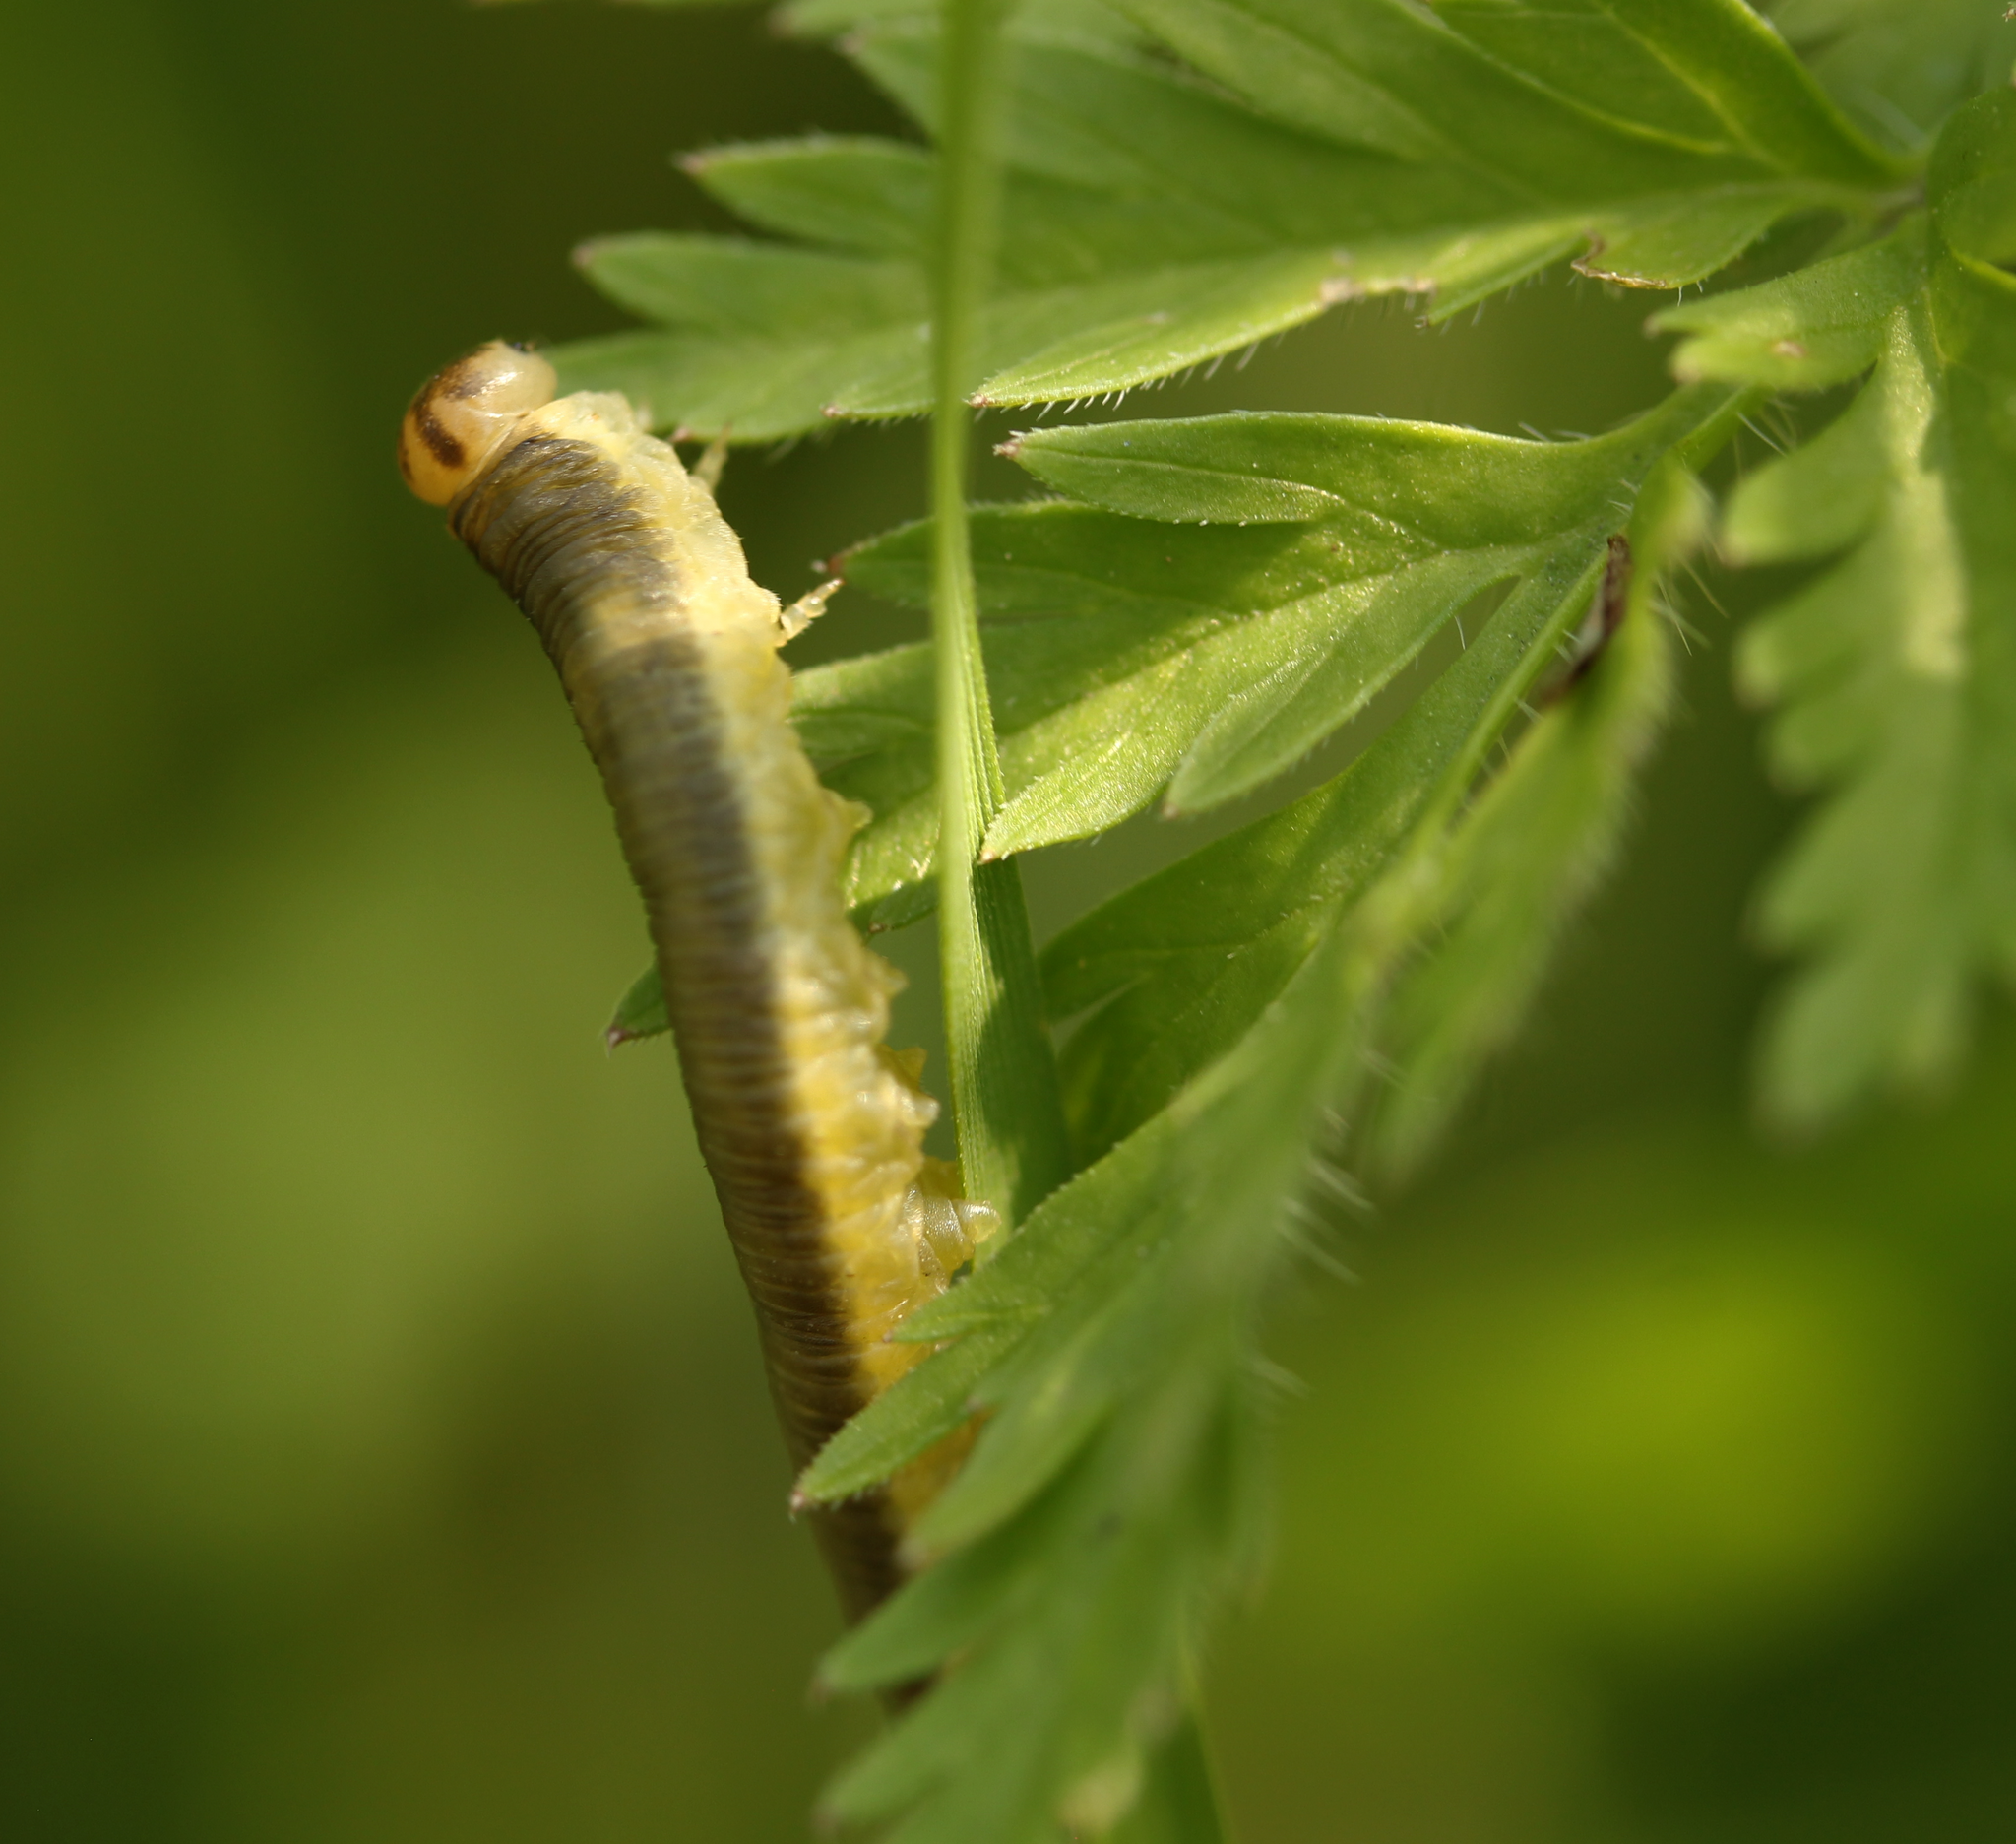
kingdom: Animalia
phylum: Arthropoda
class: Insecta
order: Hymenoptera
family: Tenthredinidae
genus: Dolerus
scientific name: Dolerus
